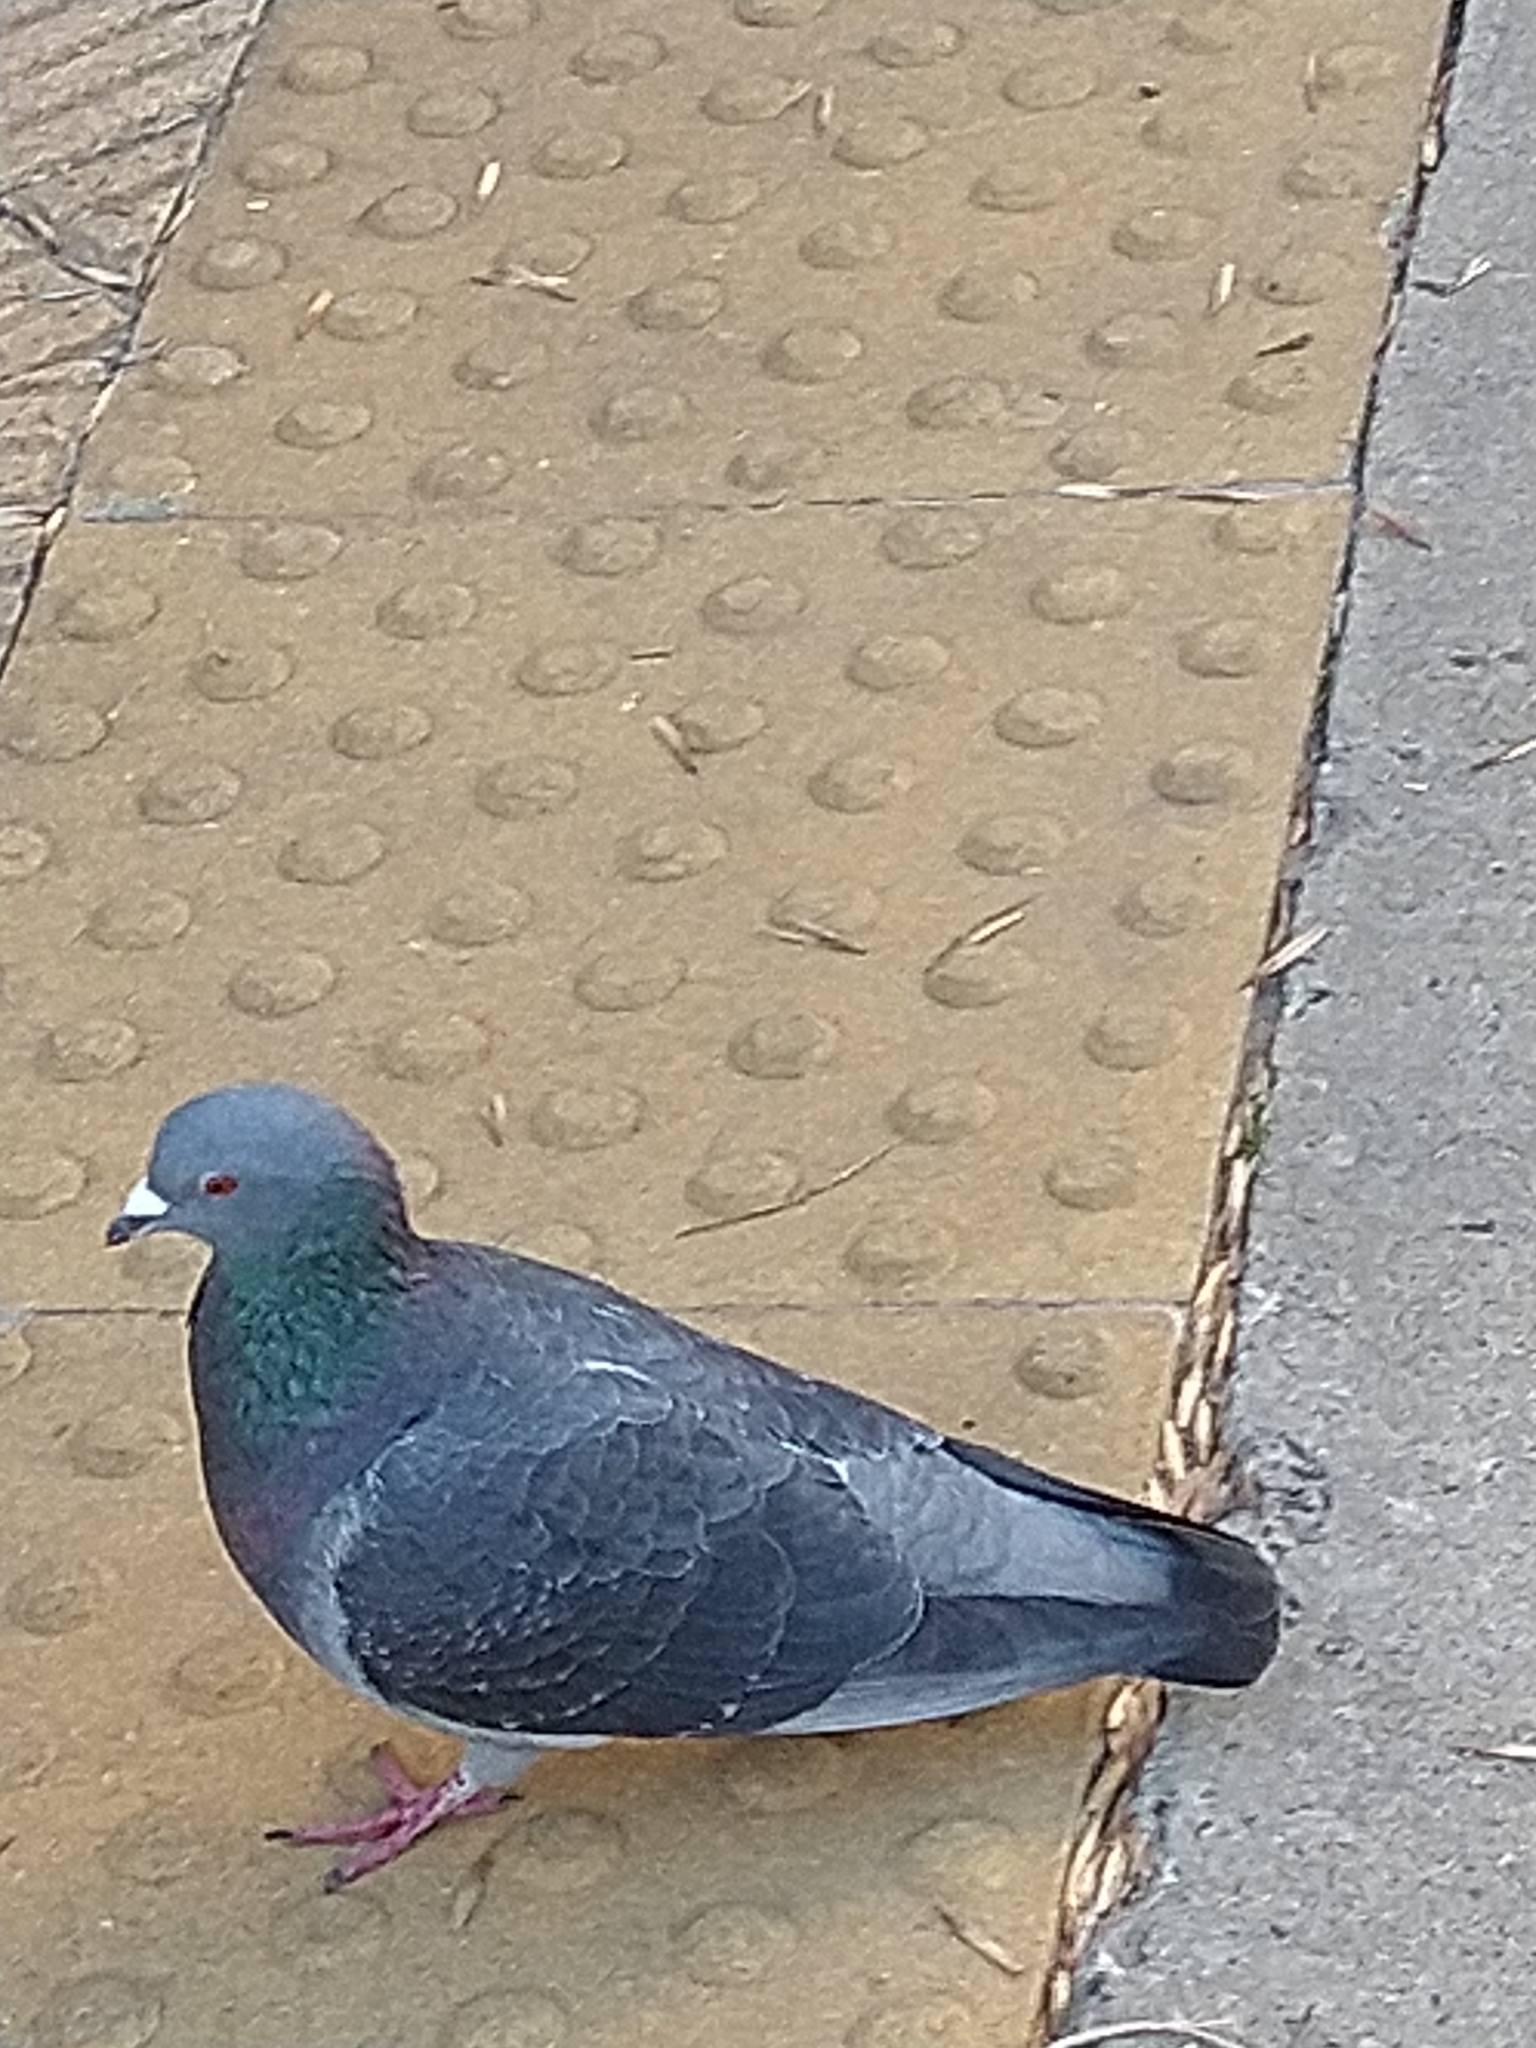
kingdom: Animalia
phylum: Chordata
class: Aves
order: Columbiformes
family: Columbidae
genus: Columba
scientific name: Columba livia
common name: Rock pigeon
